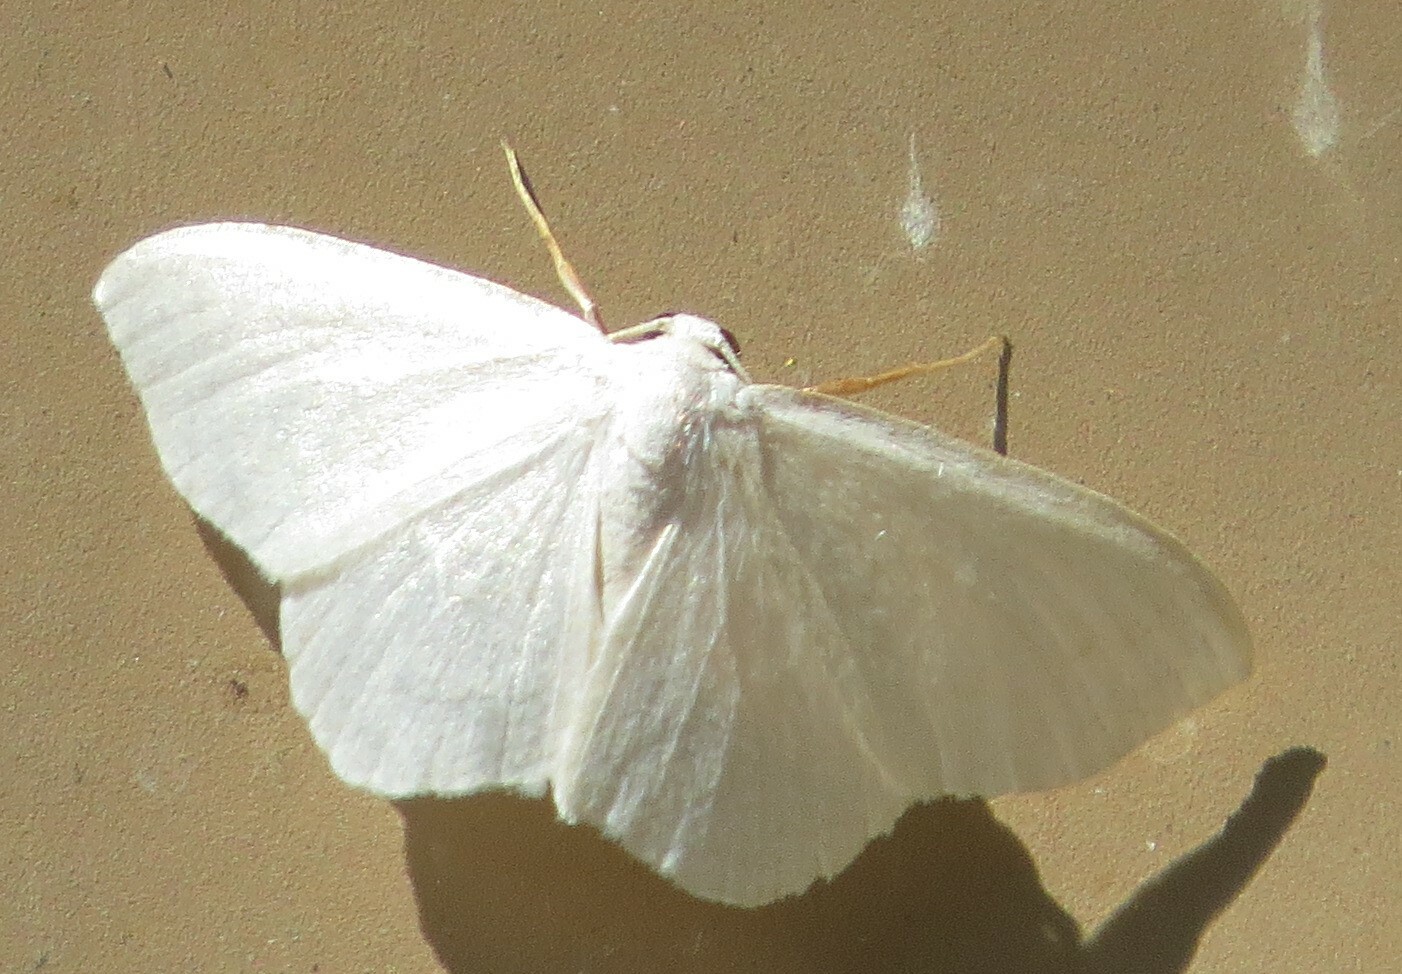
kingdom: Animalia
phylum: Arthropoda
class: Insecta
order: Lepidoptera
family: Geometridae
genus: Lomographa
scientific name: Lomographa vestaliata
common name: White spring moth
